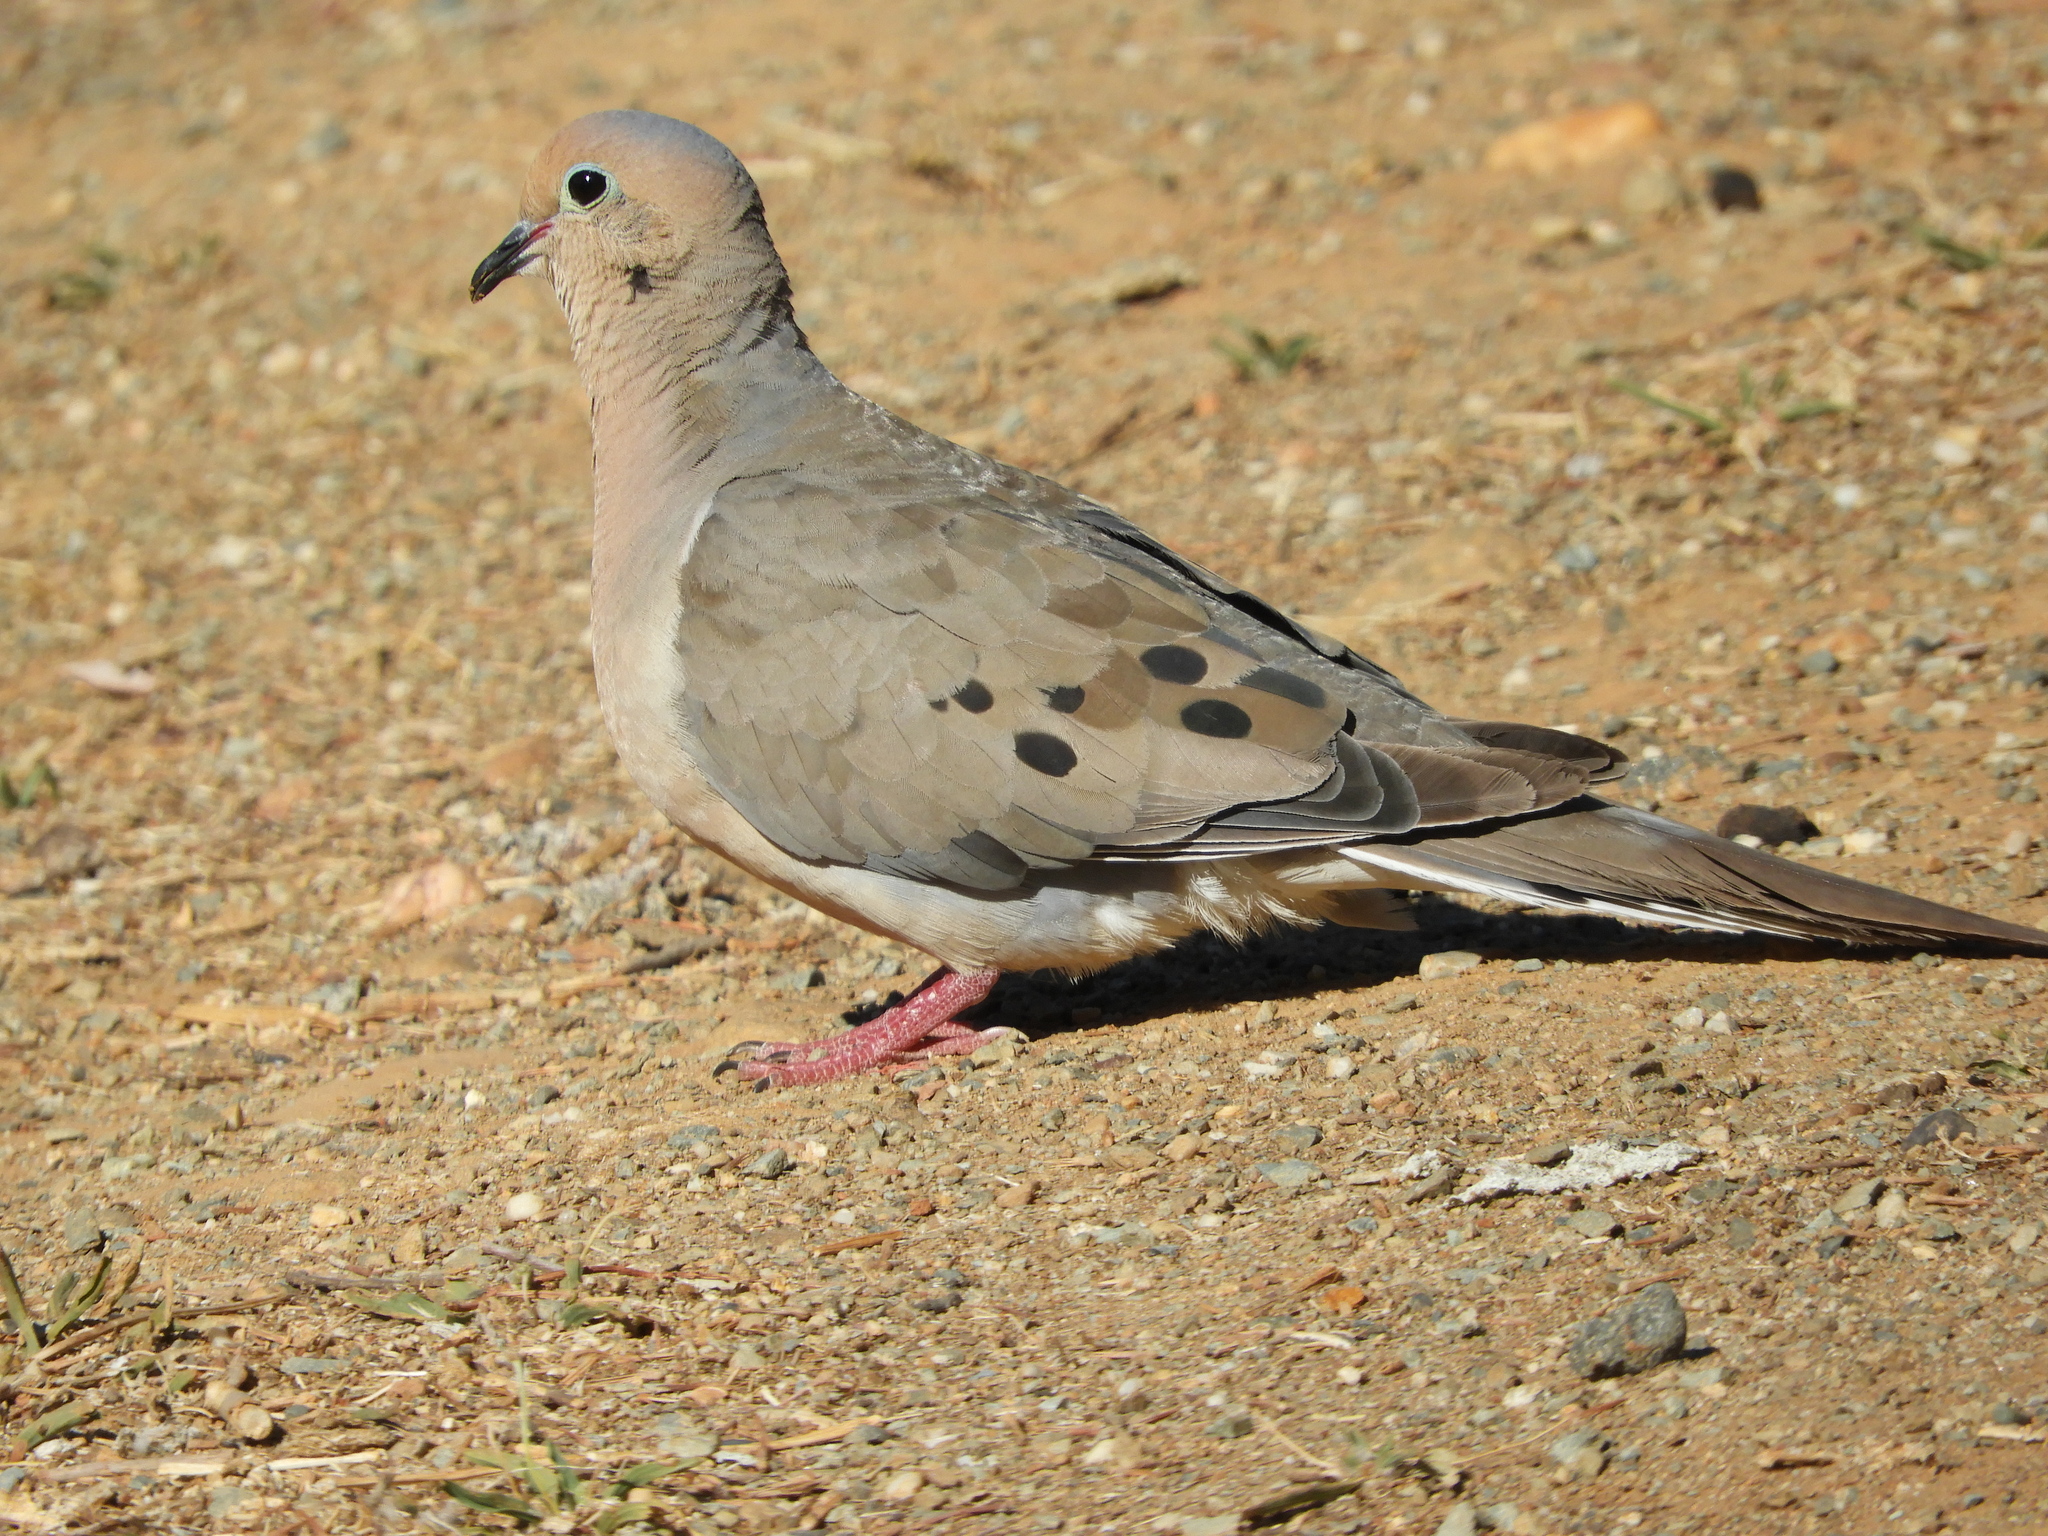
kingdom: Animalia
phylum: Chordata
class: Aves
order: Columbiformes
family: Columbidae
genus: Zenaida
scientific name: Zenaida macroura
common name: Mourning dove
